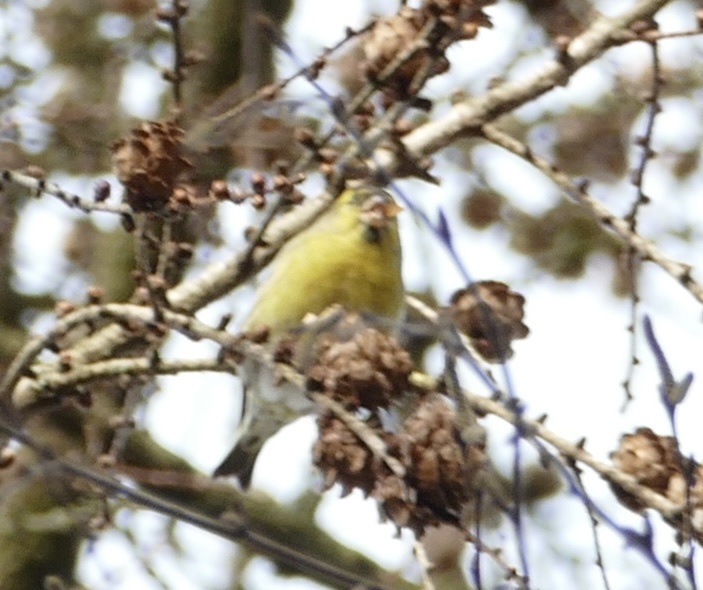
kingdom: Animalia
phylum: Chordata
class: Aves
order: Passeriformes
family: Fringillidae
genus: Spinus
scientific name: Spinus spinus
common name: Eurasian siskin
